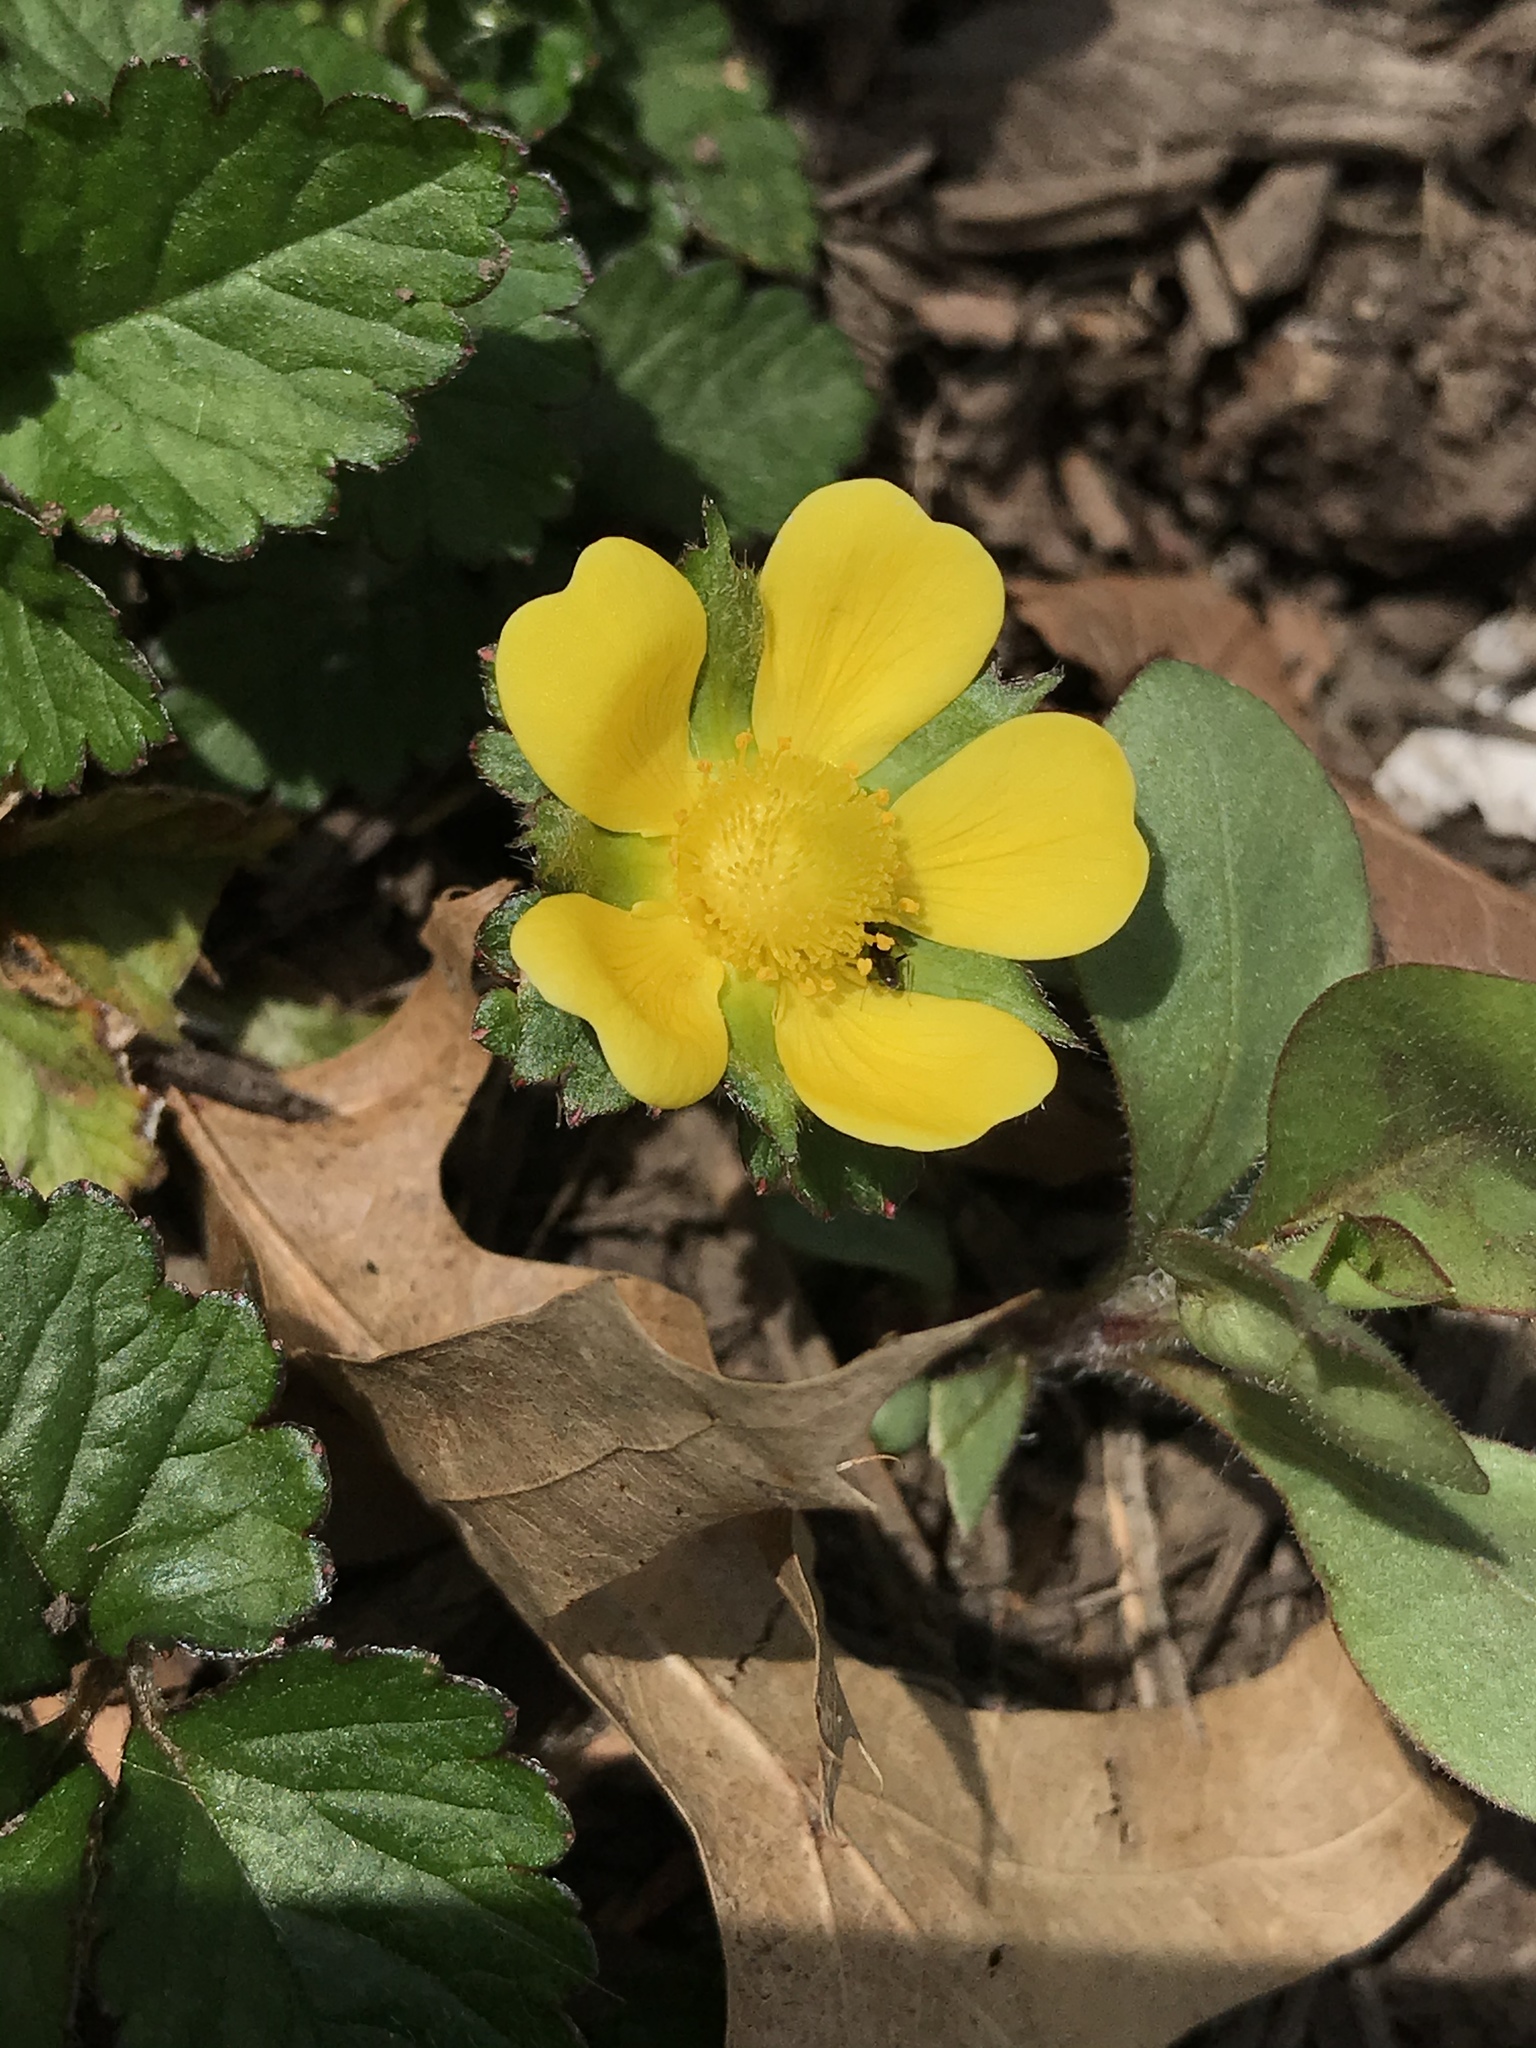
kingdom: Plantae
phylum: Tracheophyta
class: Magnoliopsida
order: Rosales
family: Rosaceae
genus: Potentilla
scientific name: Potentilla indica
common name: Yellow-flowered strawberry
